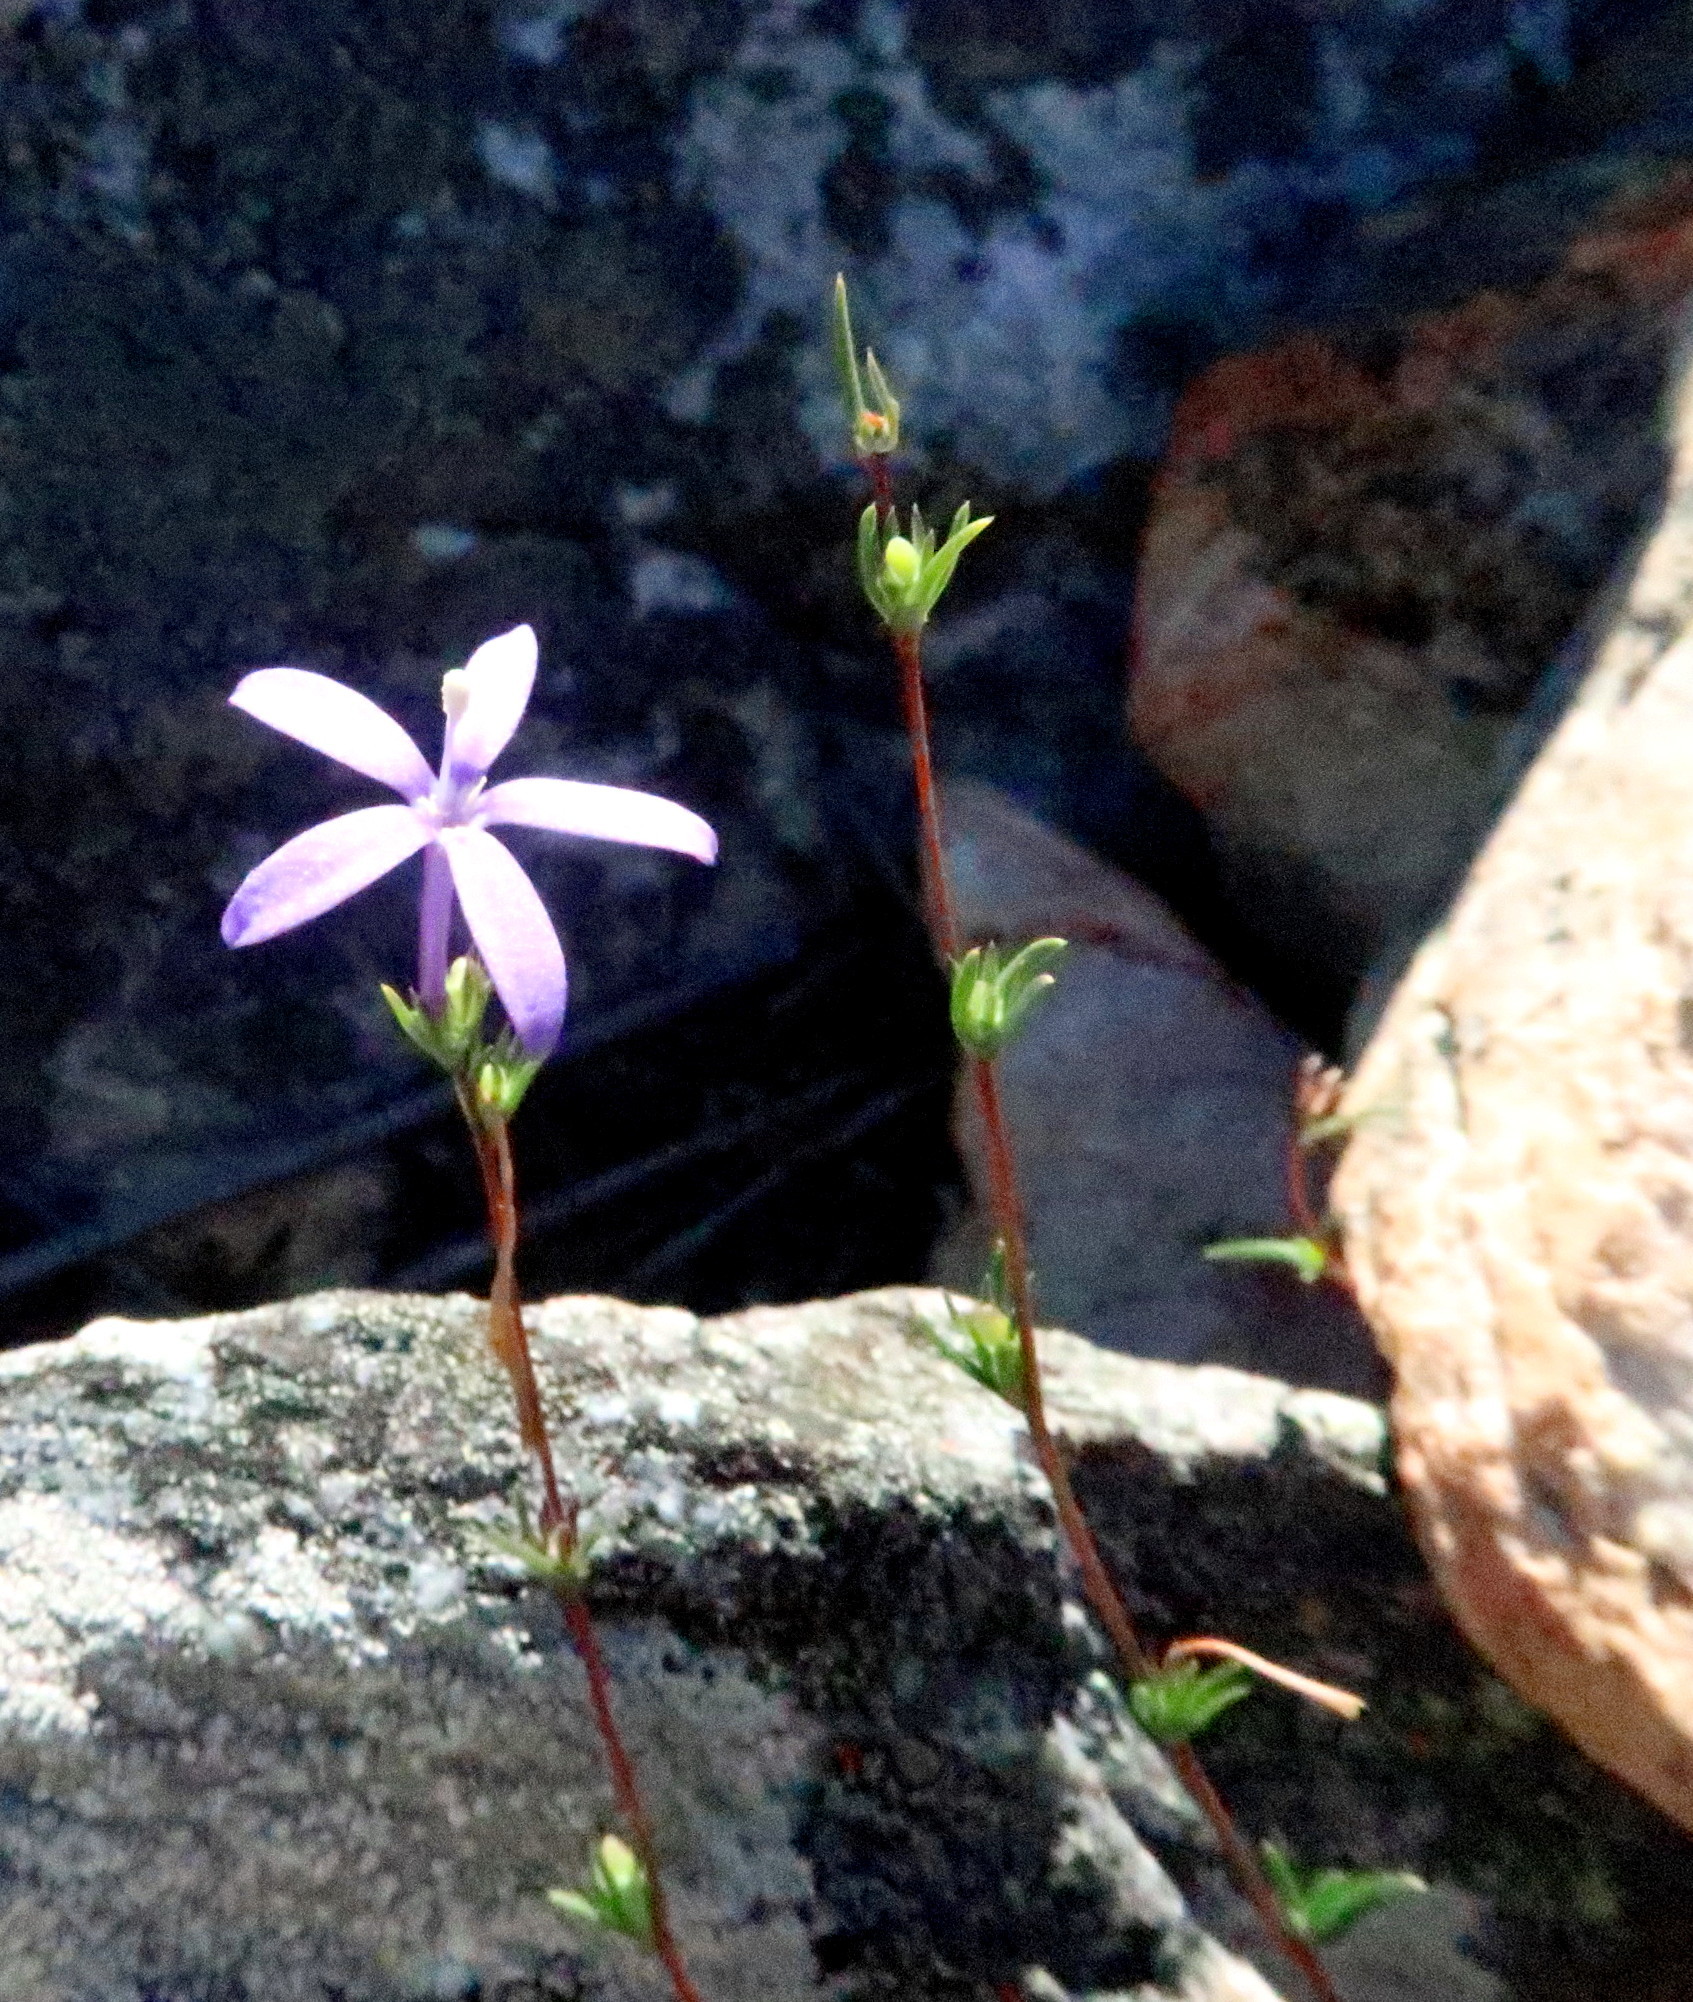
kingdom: Plantae
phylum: Tracheophyta
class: Magnoliopsida
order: Asterales
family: Campanulaceae
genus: Theilera
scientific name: Theilera guthriei
